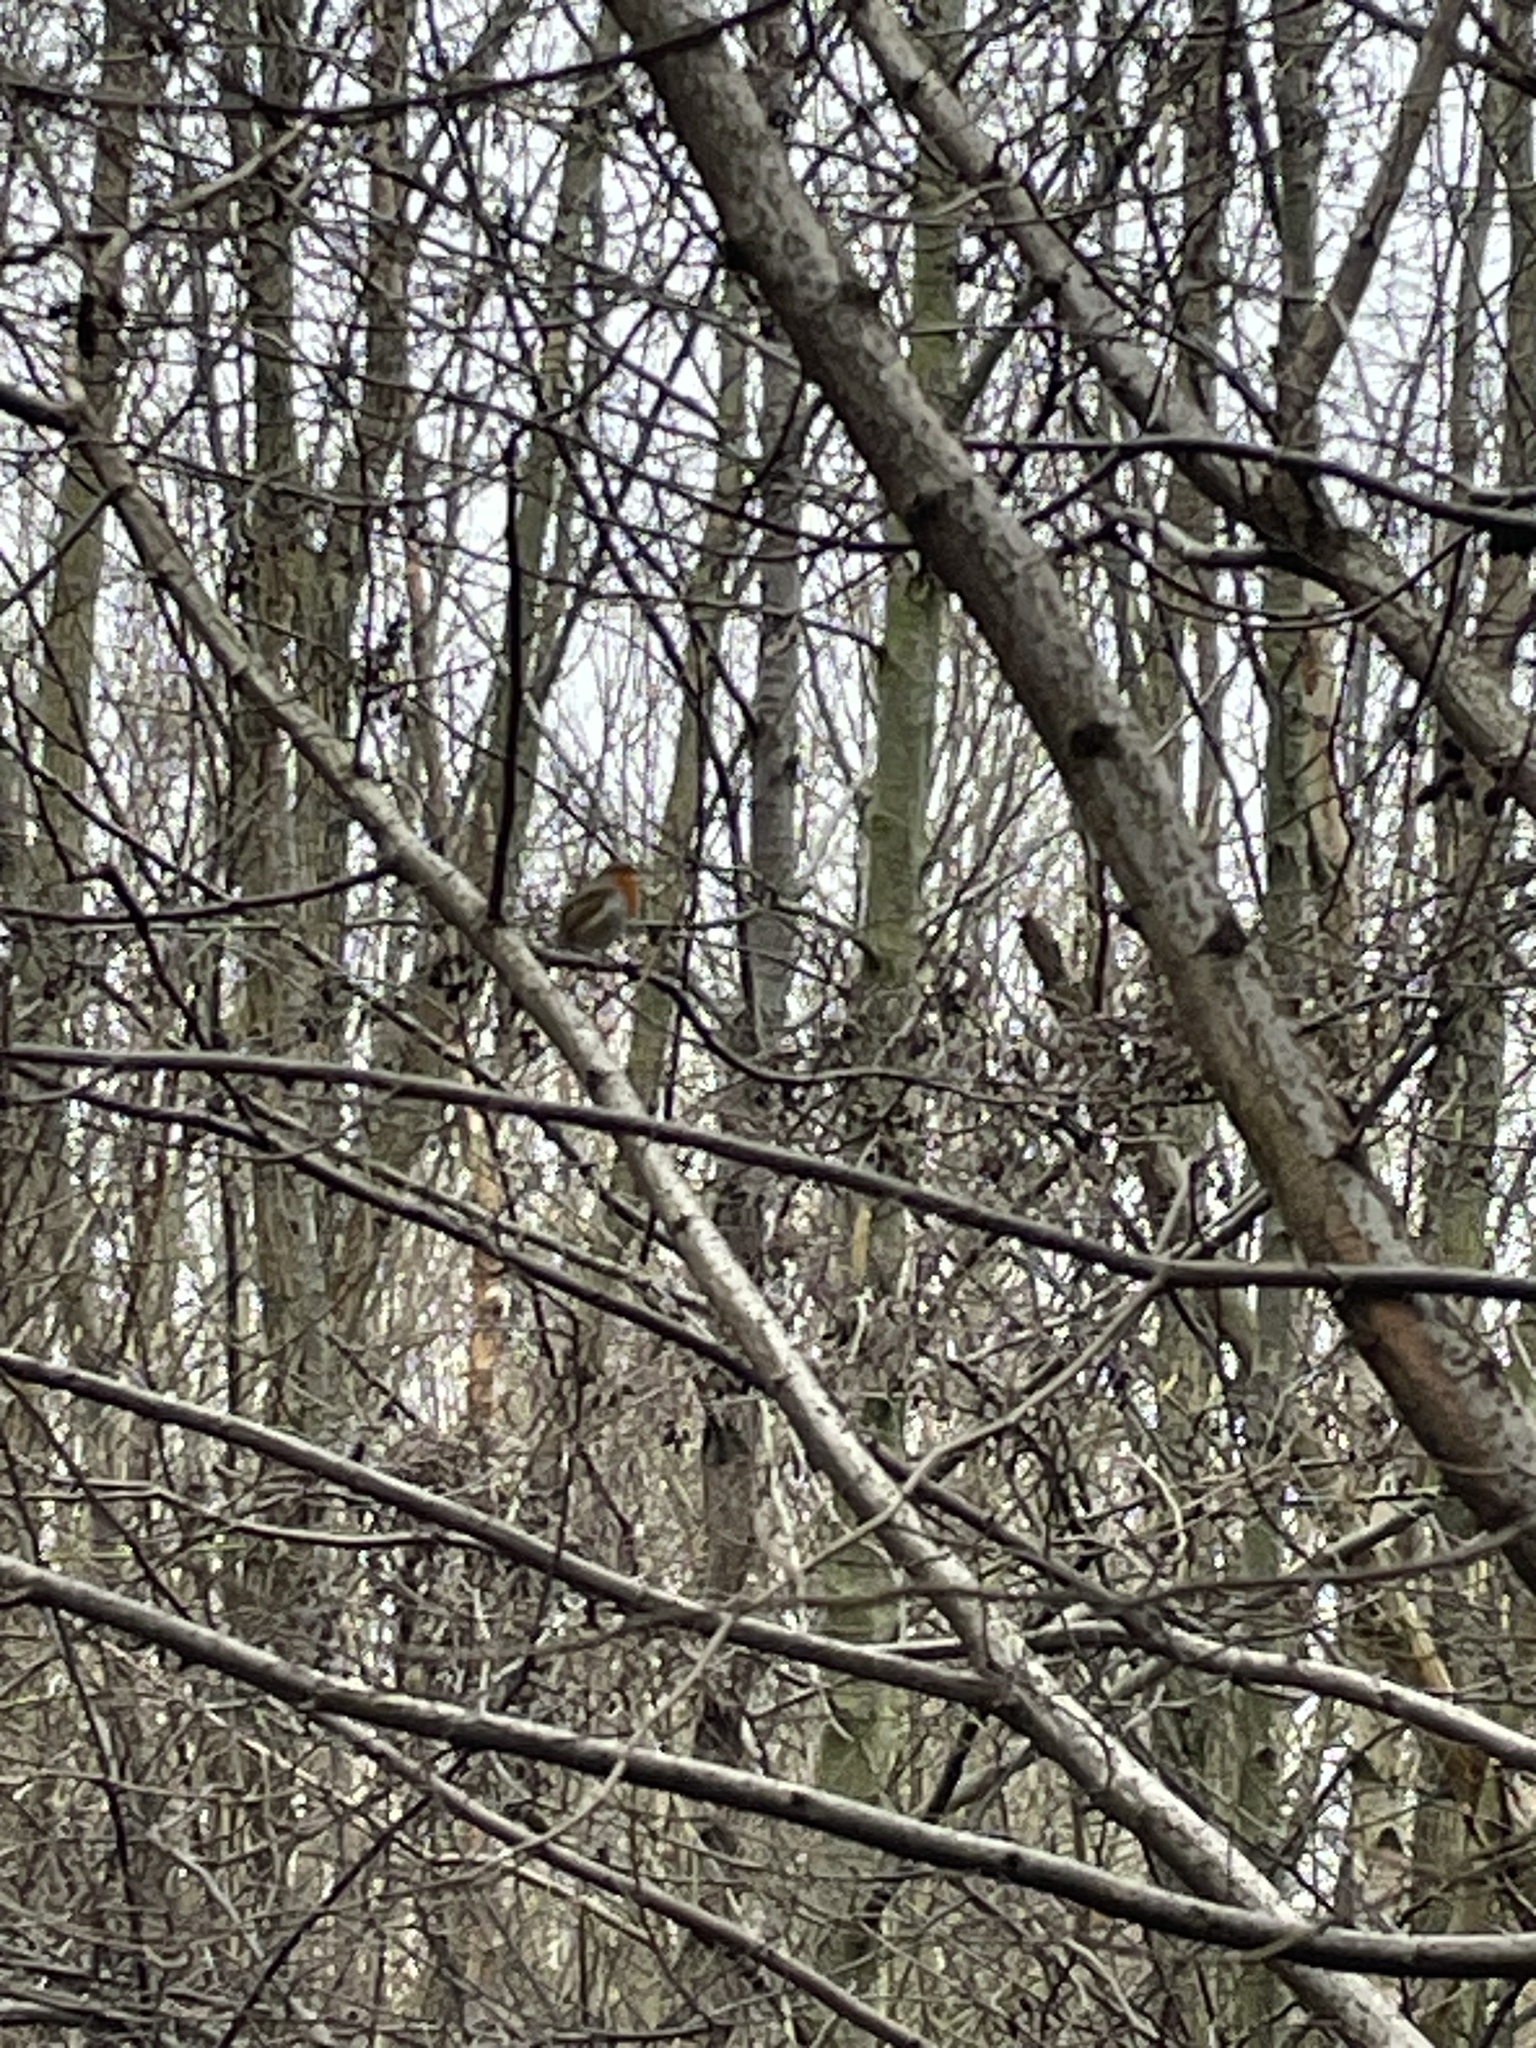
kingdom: Animalia
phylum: Chordata
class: Aves
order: Passeriformes
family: Muscicapidae
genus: Erithacus
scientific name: Erithacus rubecula
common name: European robin
